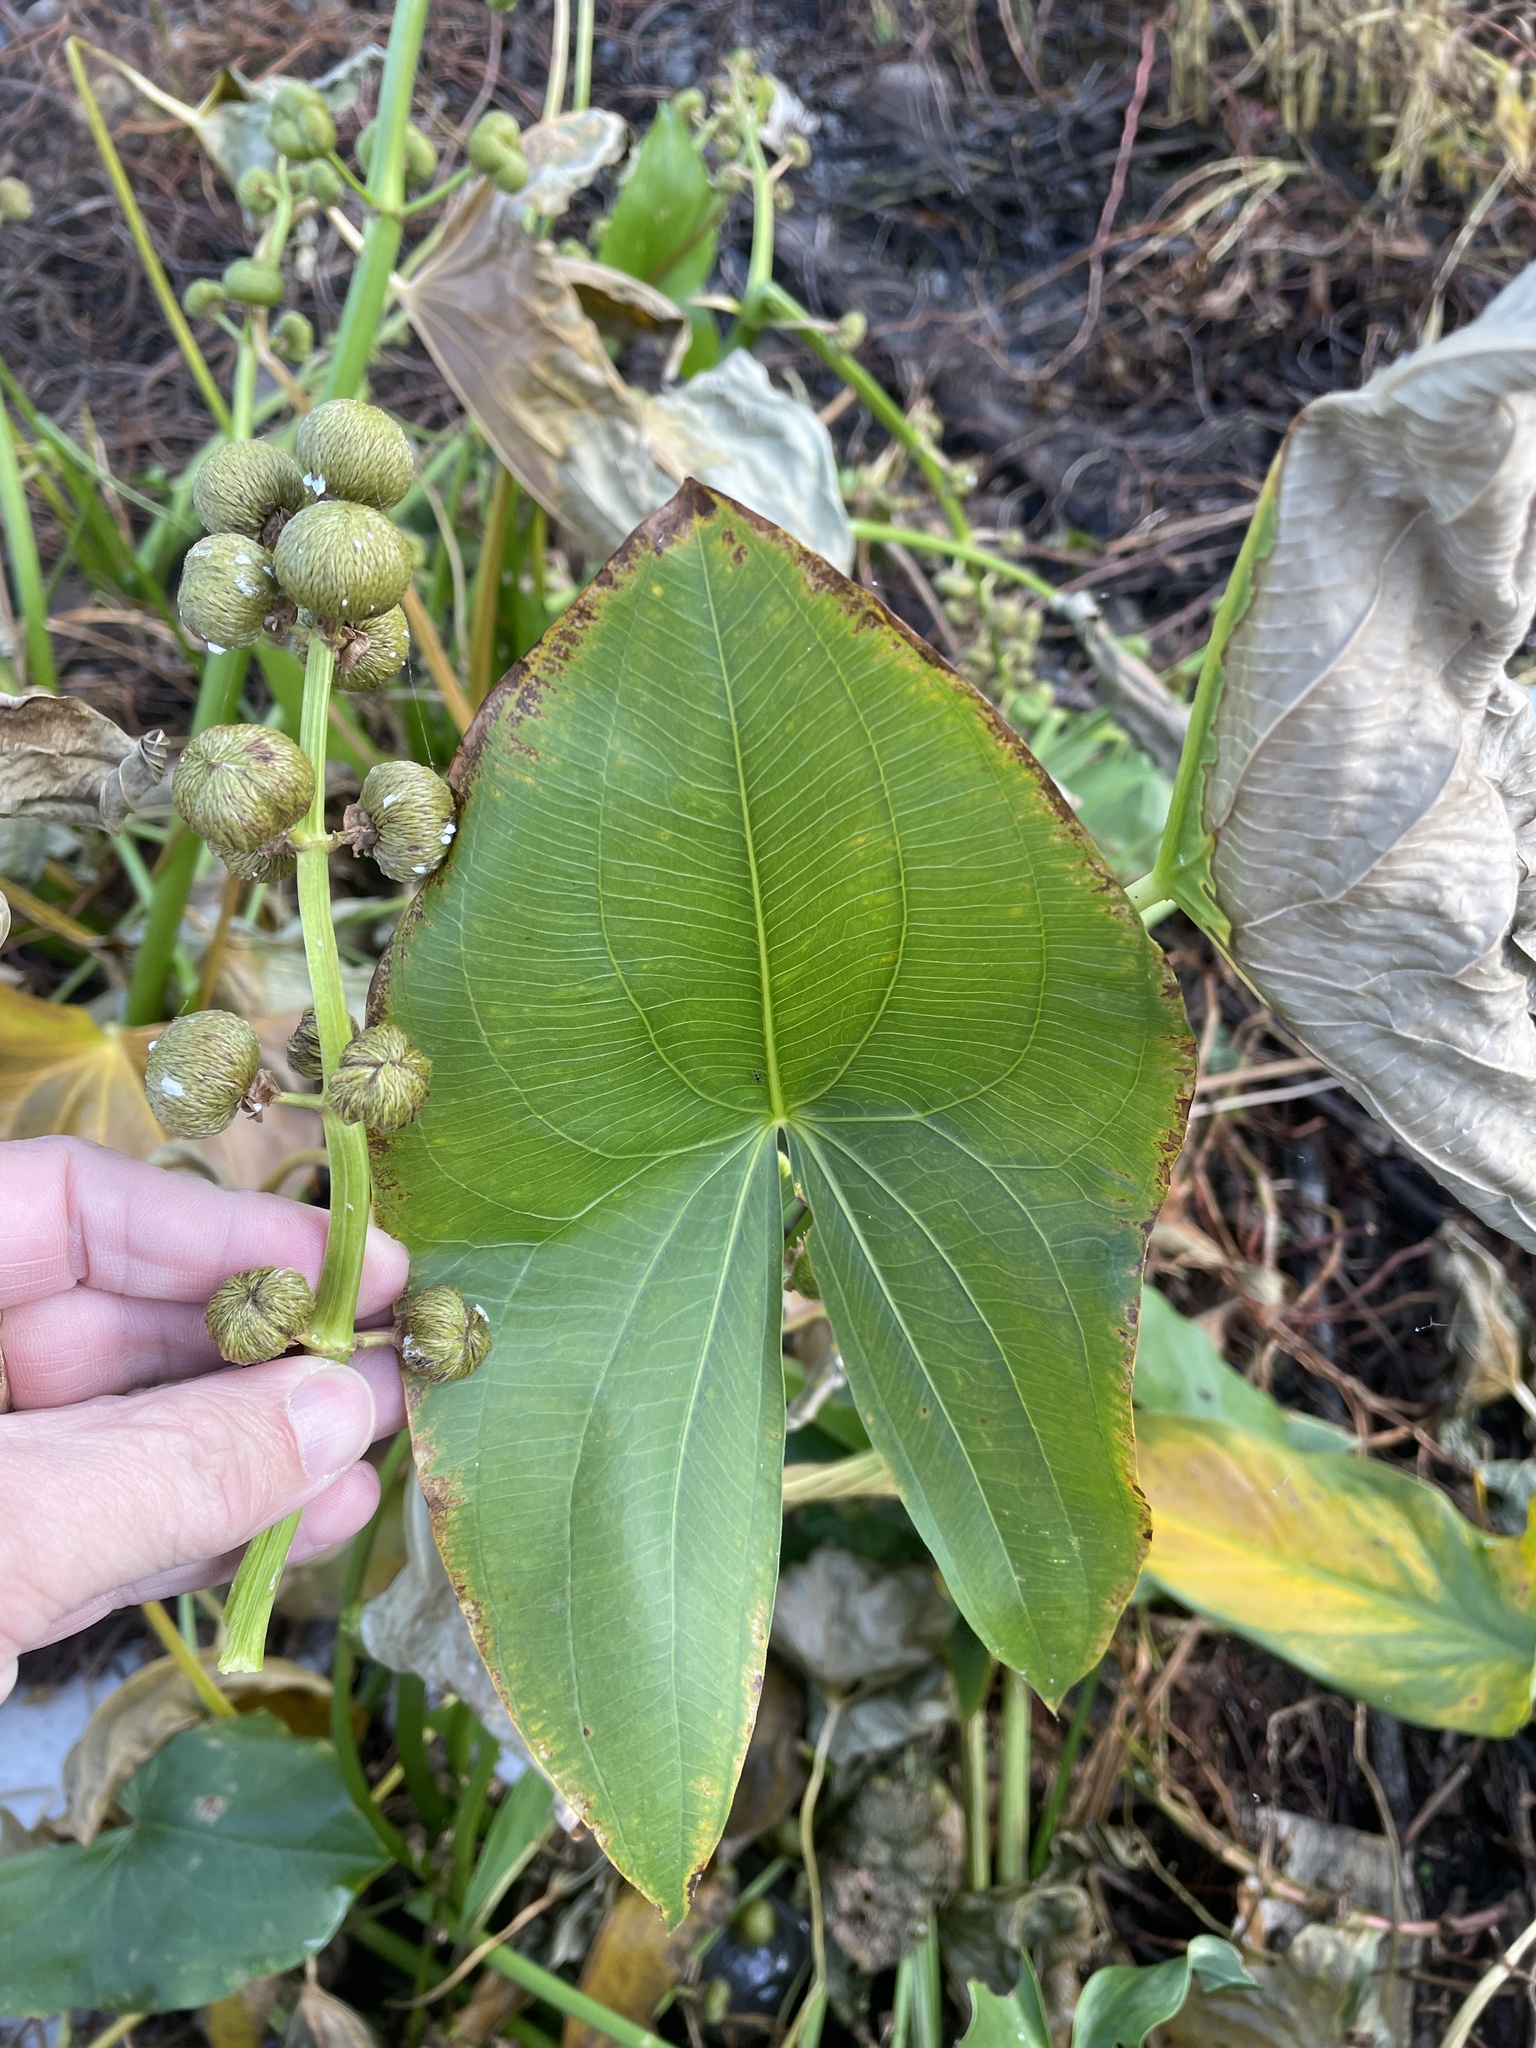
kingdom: Plantae
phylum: Tracheophyta
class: Liliopsida
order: Alismatales
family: Alismataceae
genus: Sagittaria
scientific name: Sagittaria latifolia
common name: Duck-potato
